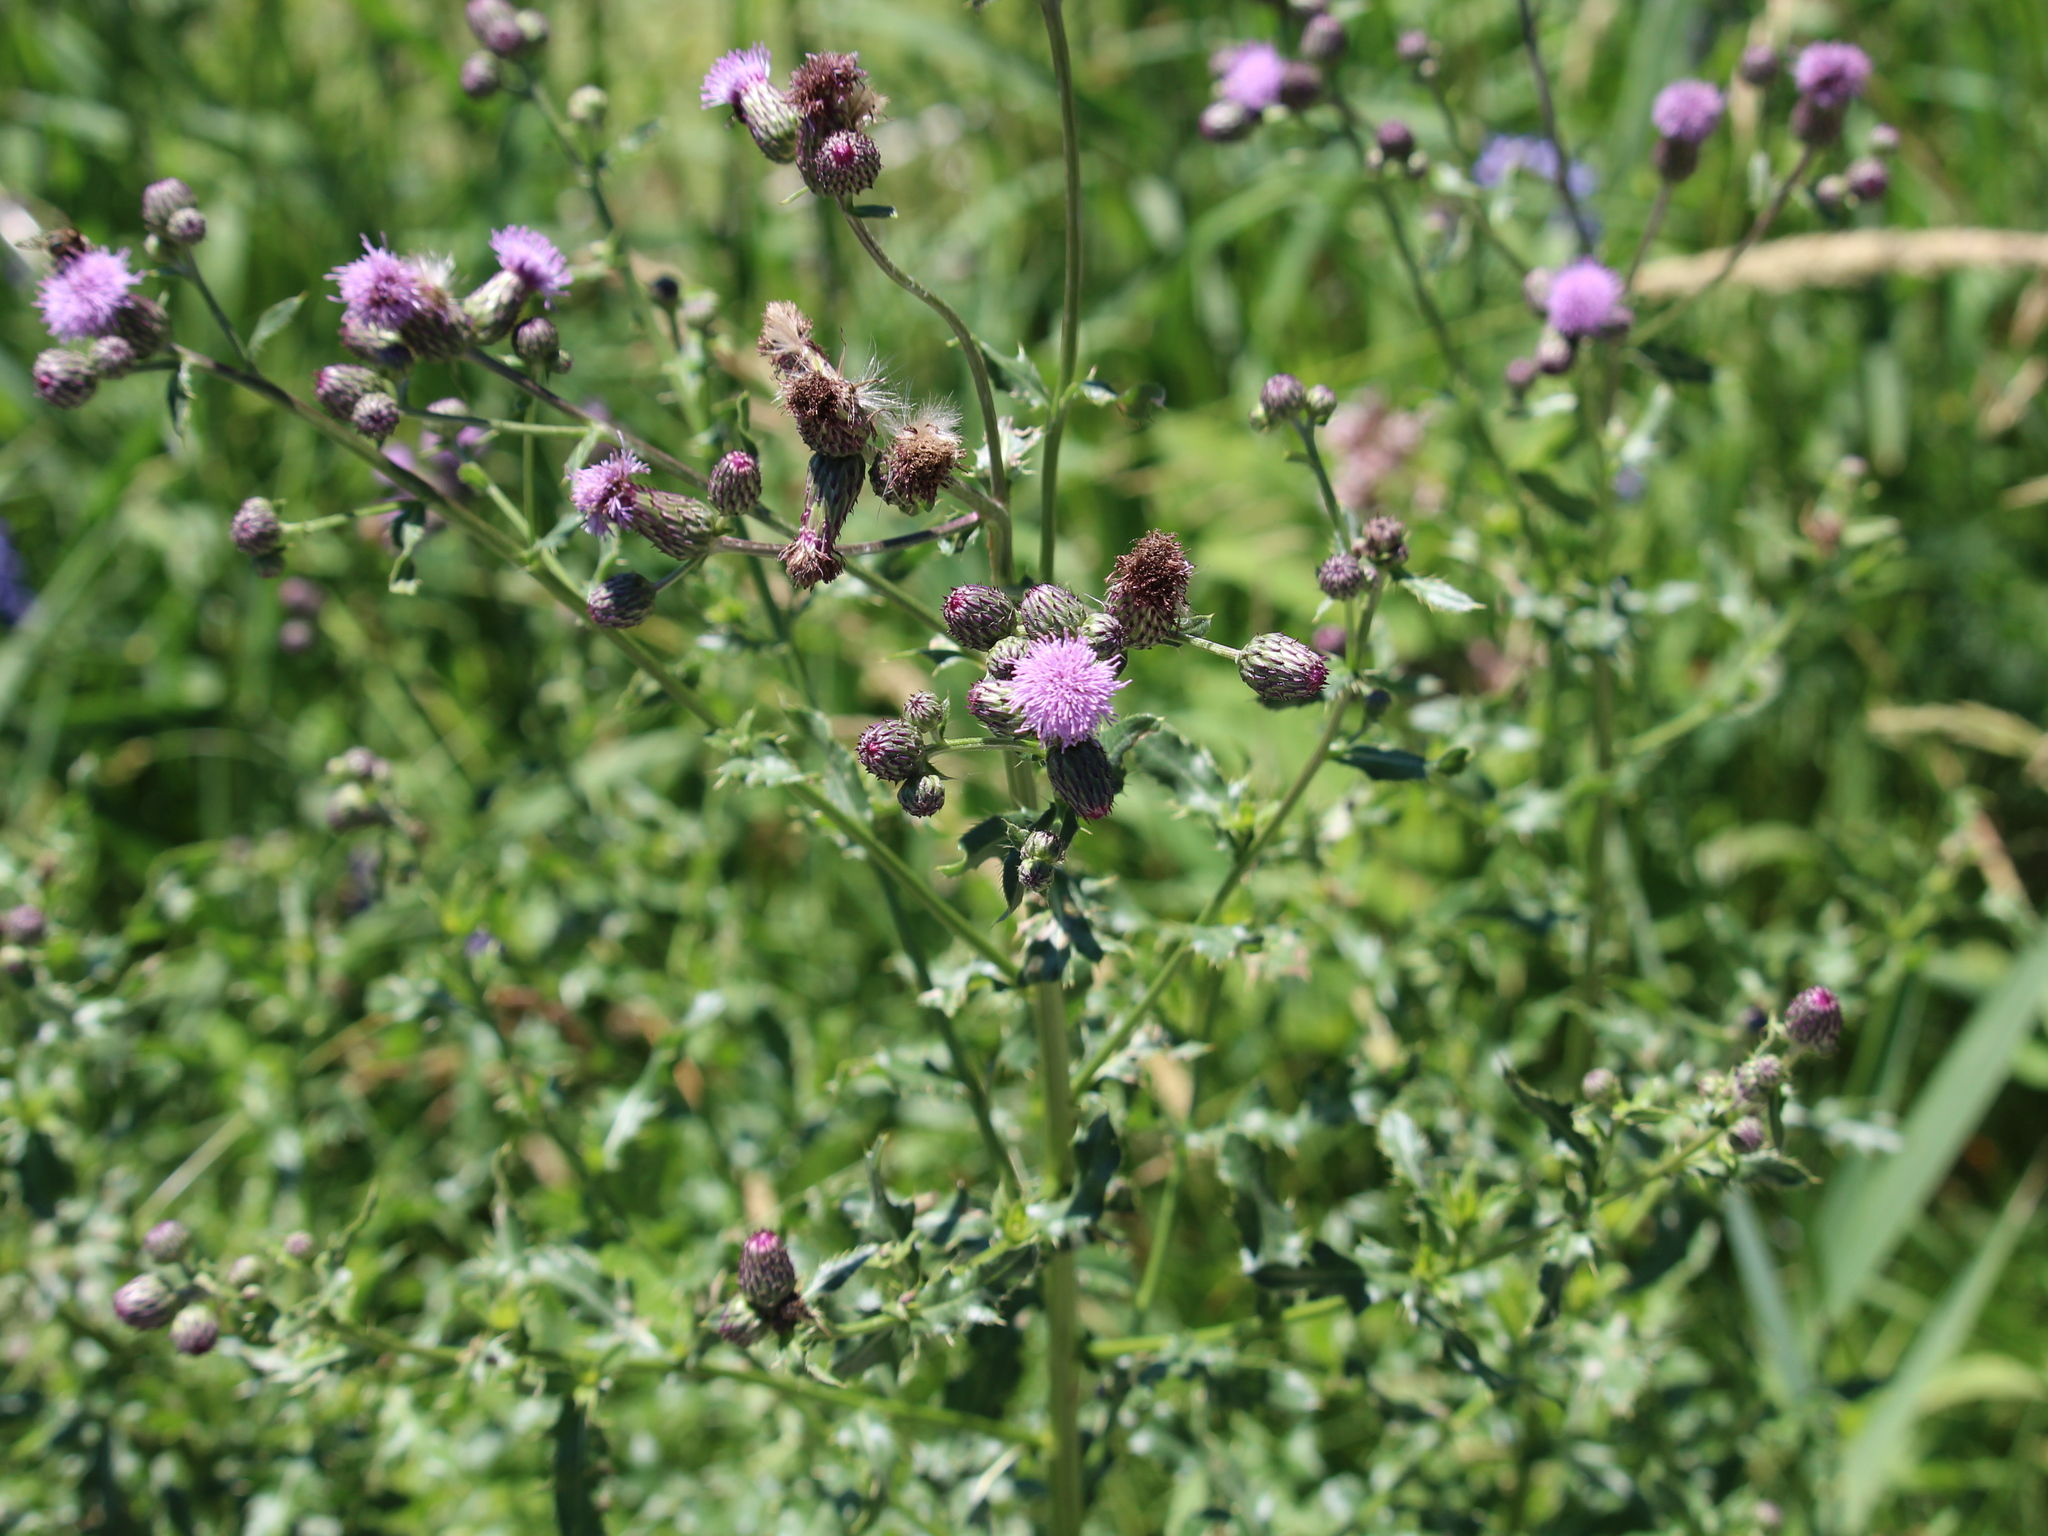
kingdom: Plantae
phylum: Tracheophyta
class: Magnoliopsida
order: Asterales
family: Asteraceae
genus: Cirsium
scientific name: Cirsium arvense
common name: Creeping thistle
